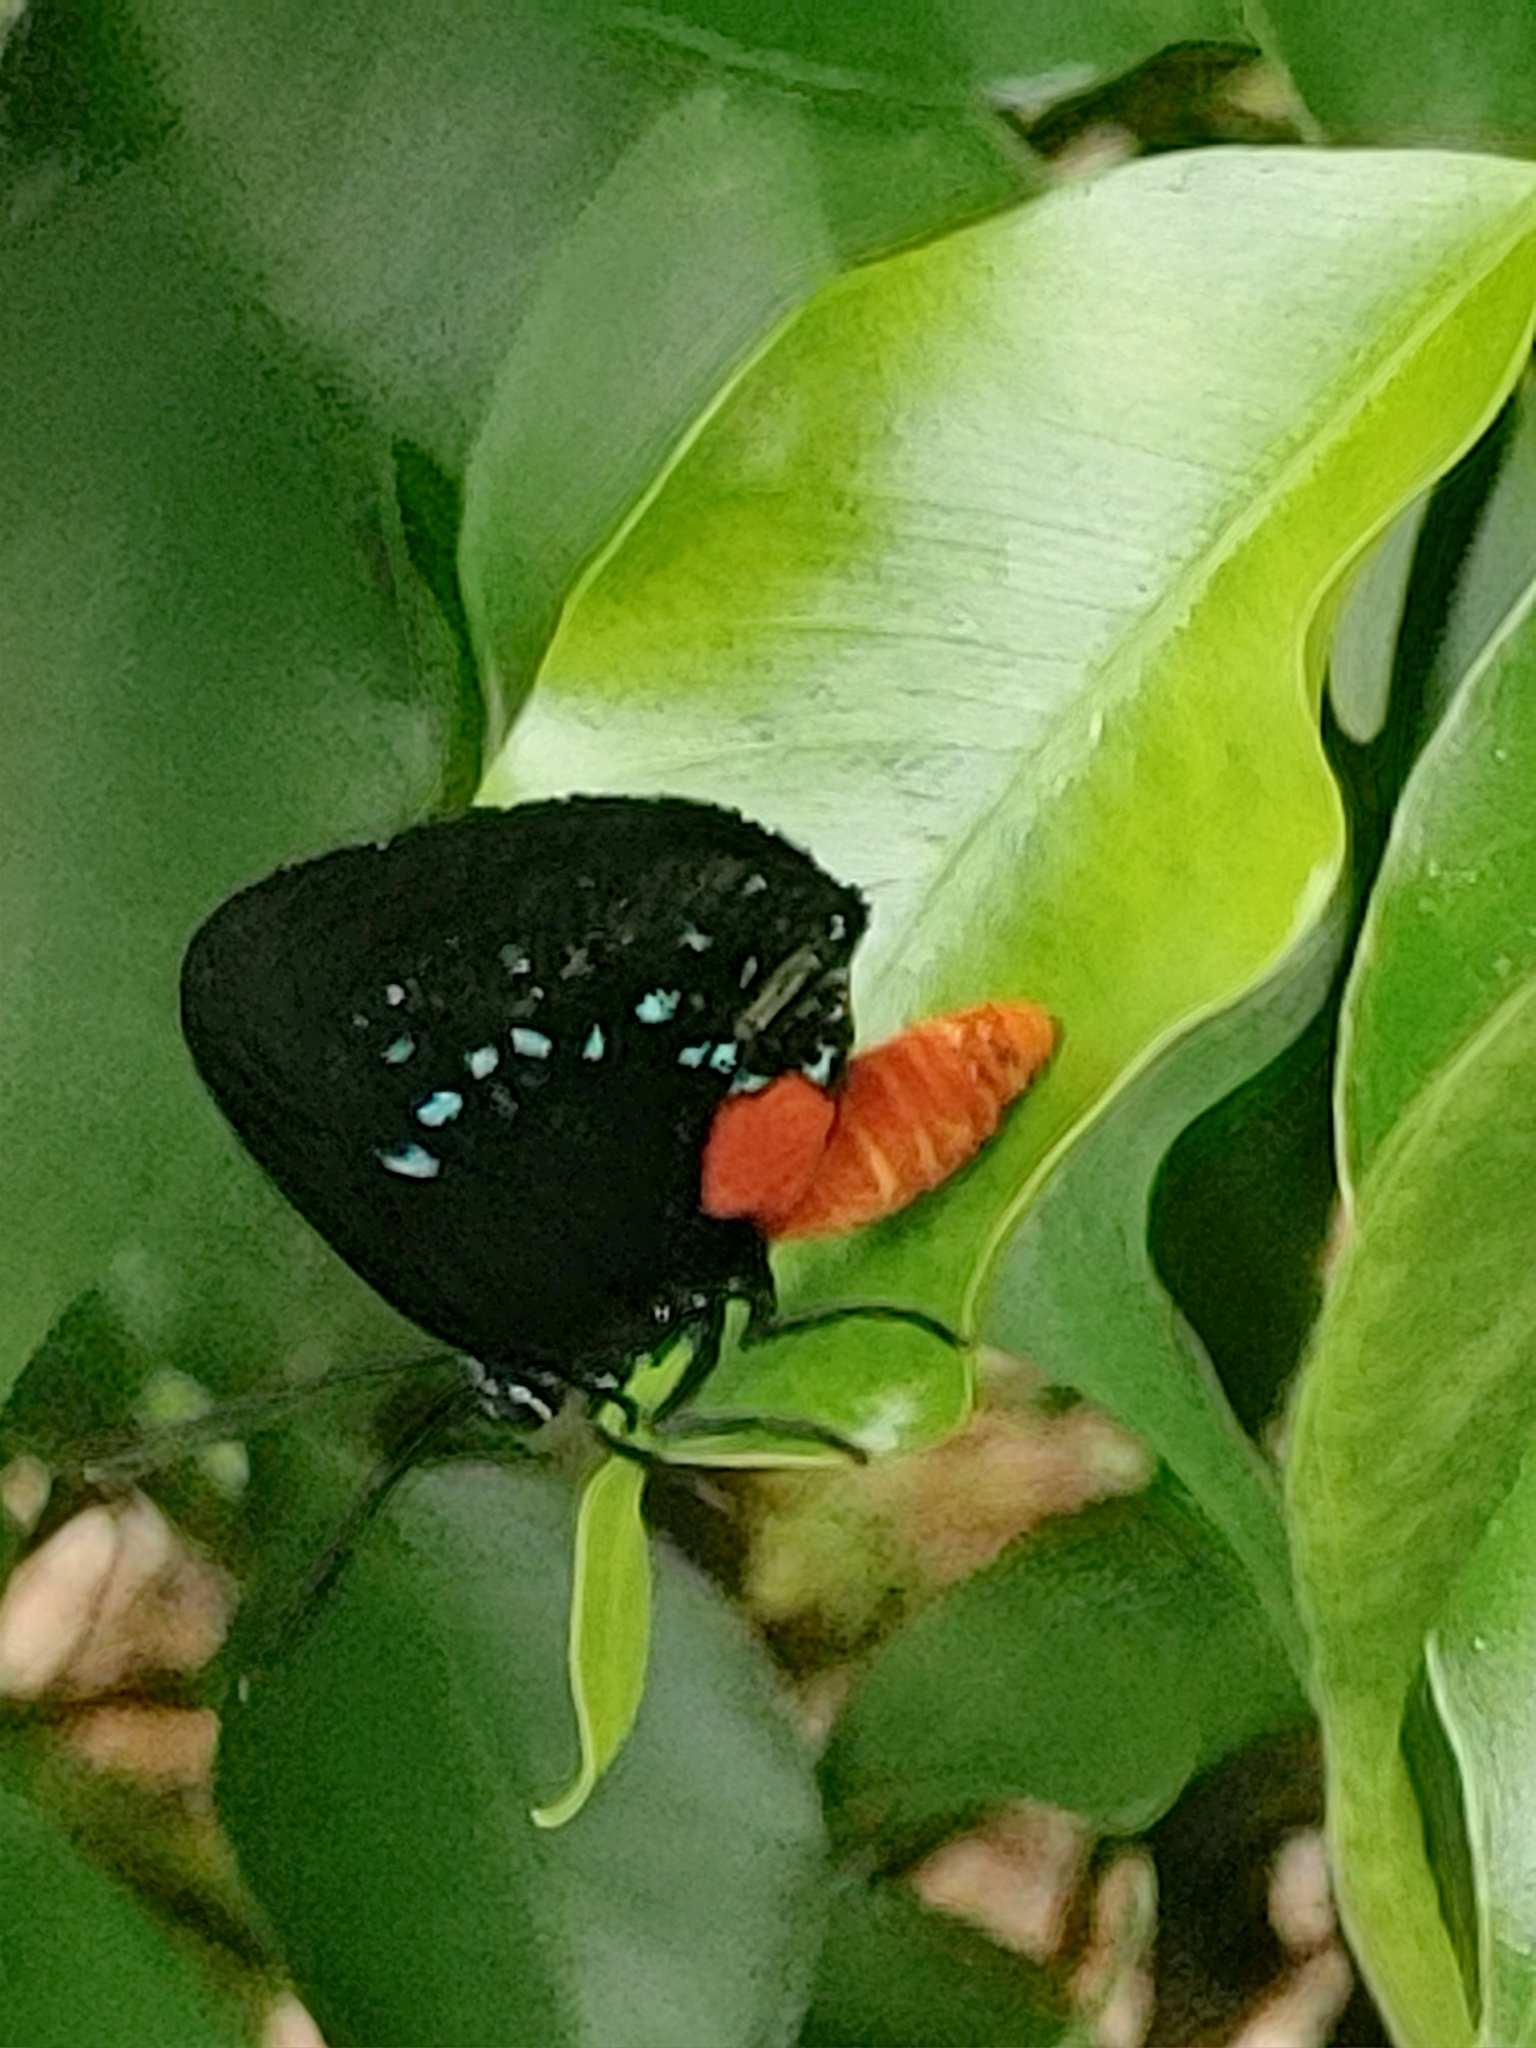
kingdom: Animalia
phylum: Arthropoda
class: Insecta
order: Lepidoptera
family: Lycaenidae
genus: Eumaeus
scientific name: Eumaeus atala
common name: Atala
